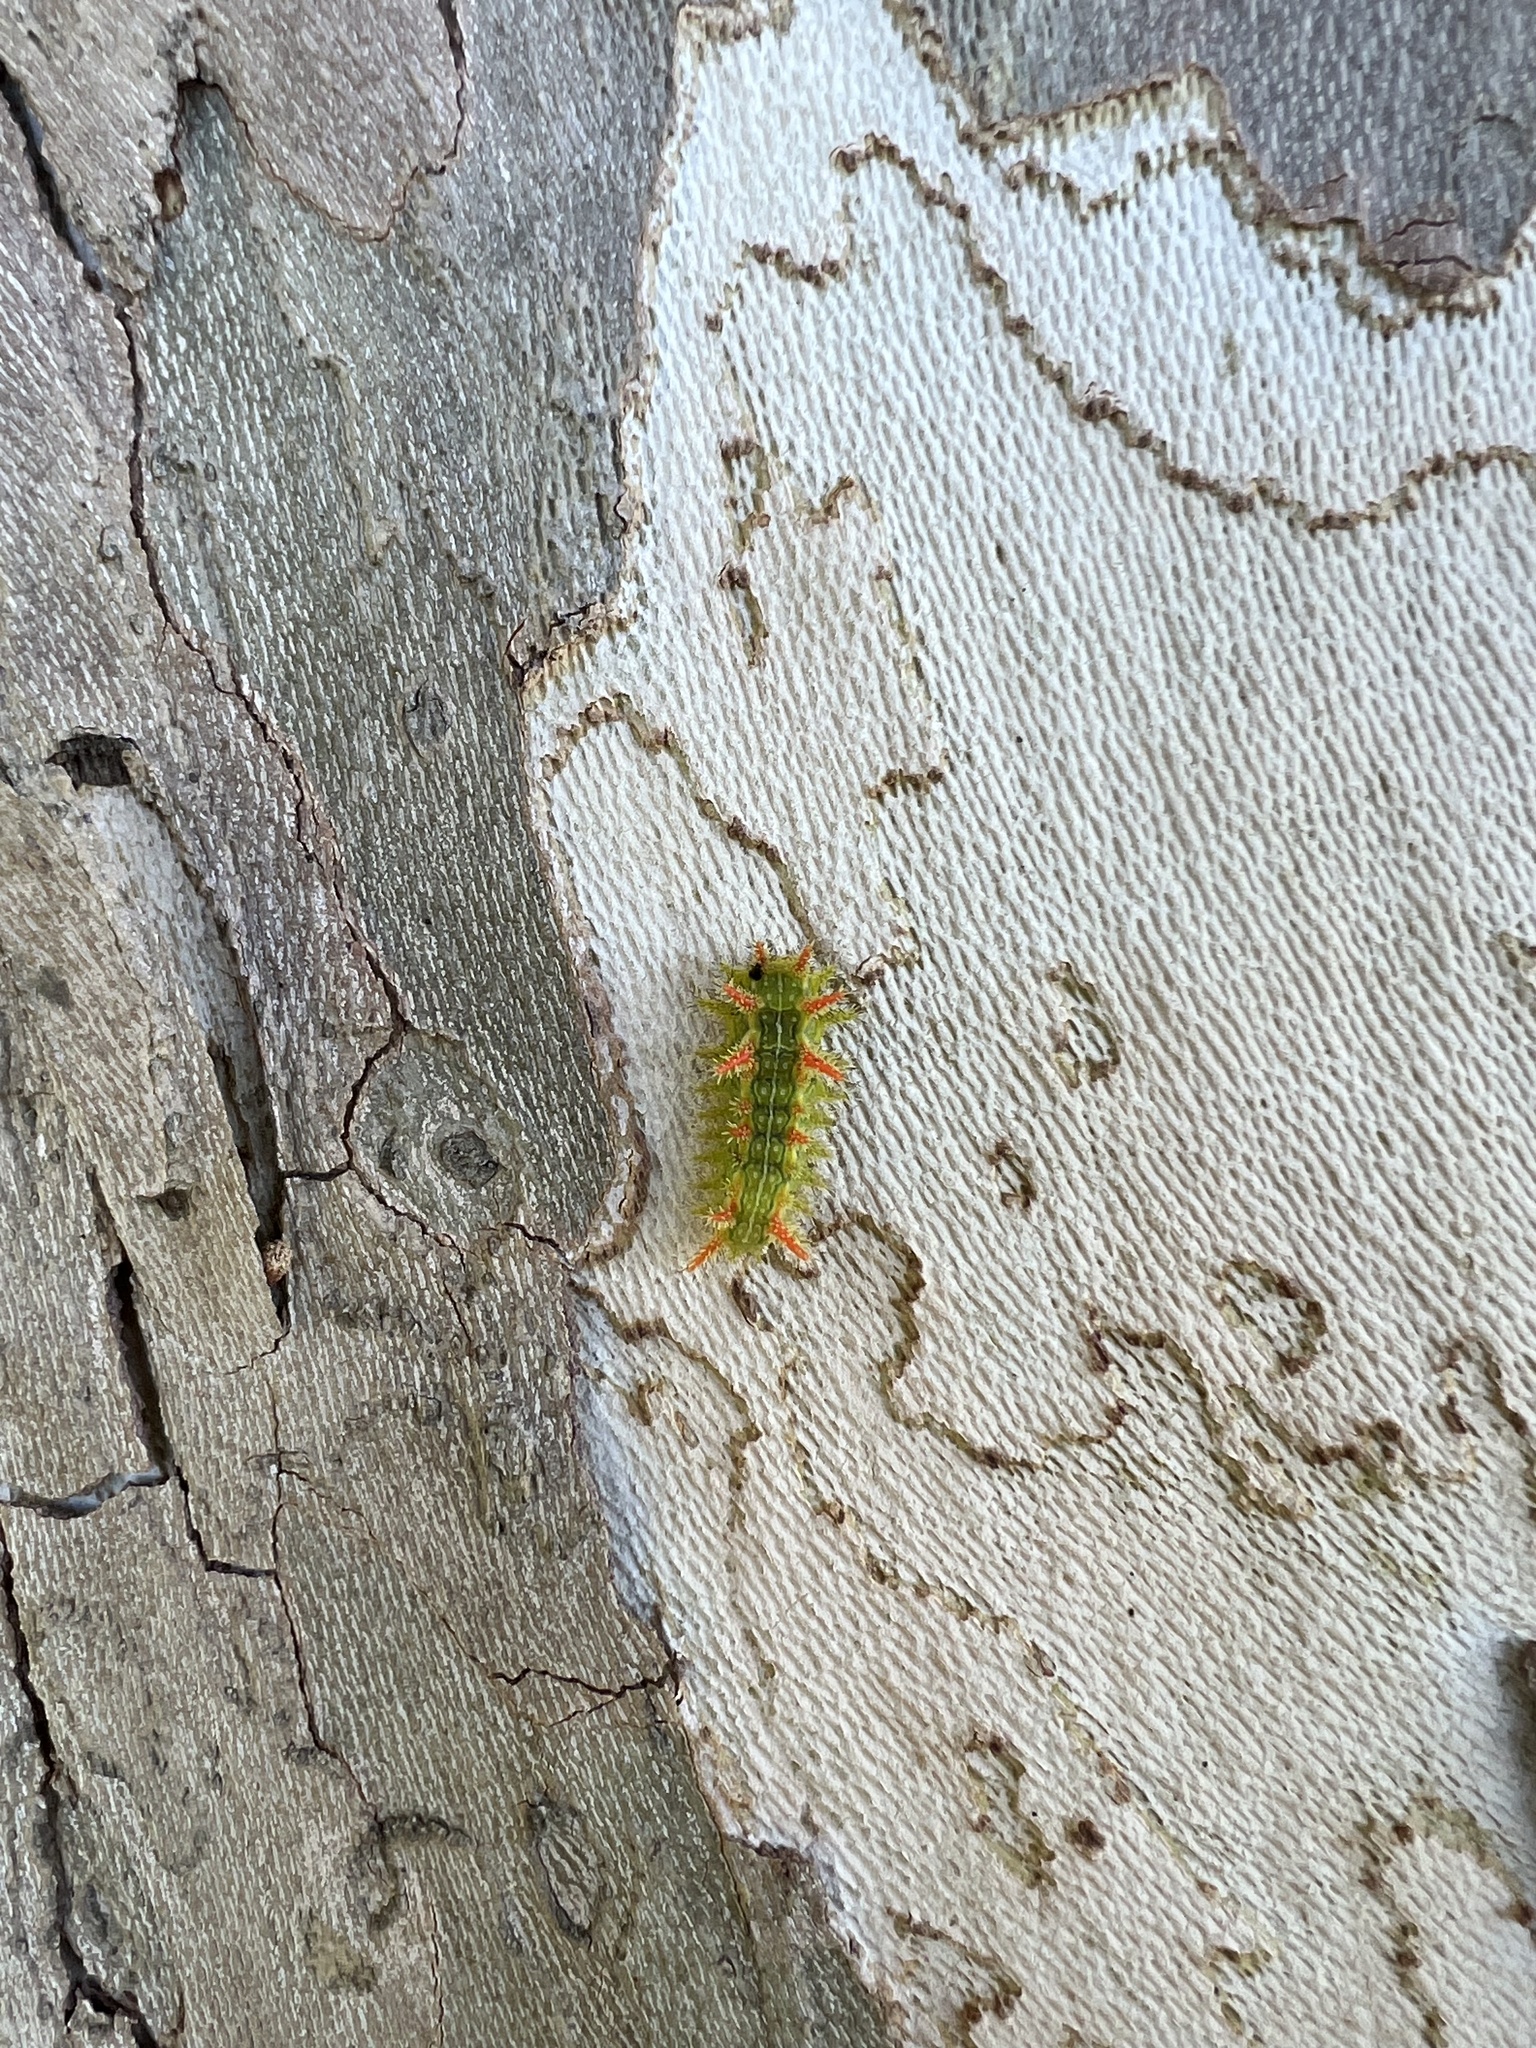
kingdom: Animalia
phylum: Arthropoda
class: Insecta
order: Lepidoptera
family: Limacodidae
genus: Euclea
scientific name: Euclea incisa
